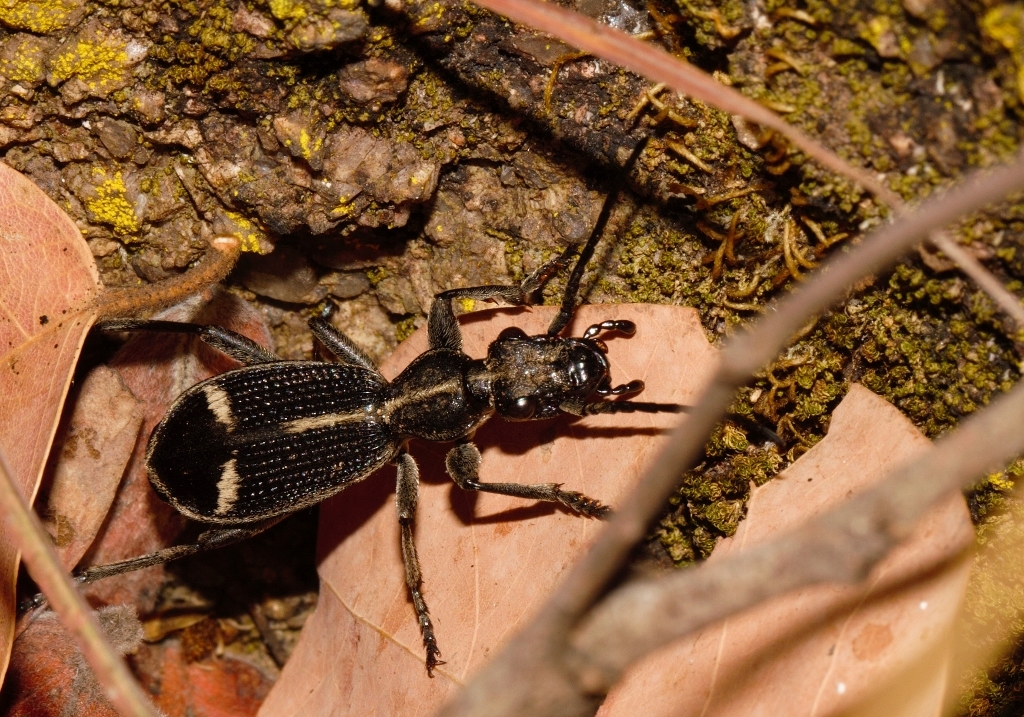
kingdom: Animalia
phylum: Arthropoda
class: Insecta
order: Coleoptera
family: Carabidae
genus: Cypholoba
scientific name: Cypholoba graphipteroides
